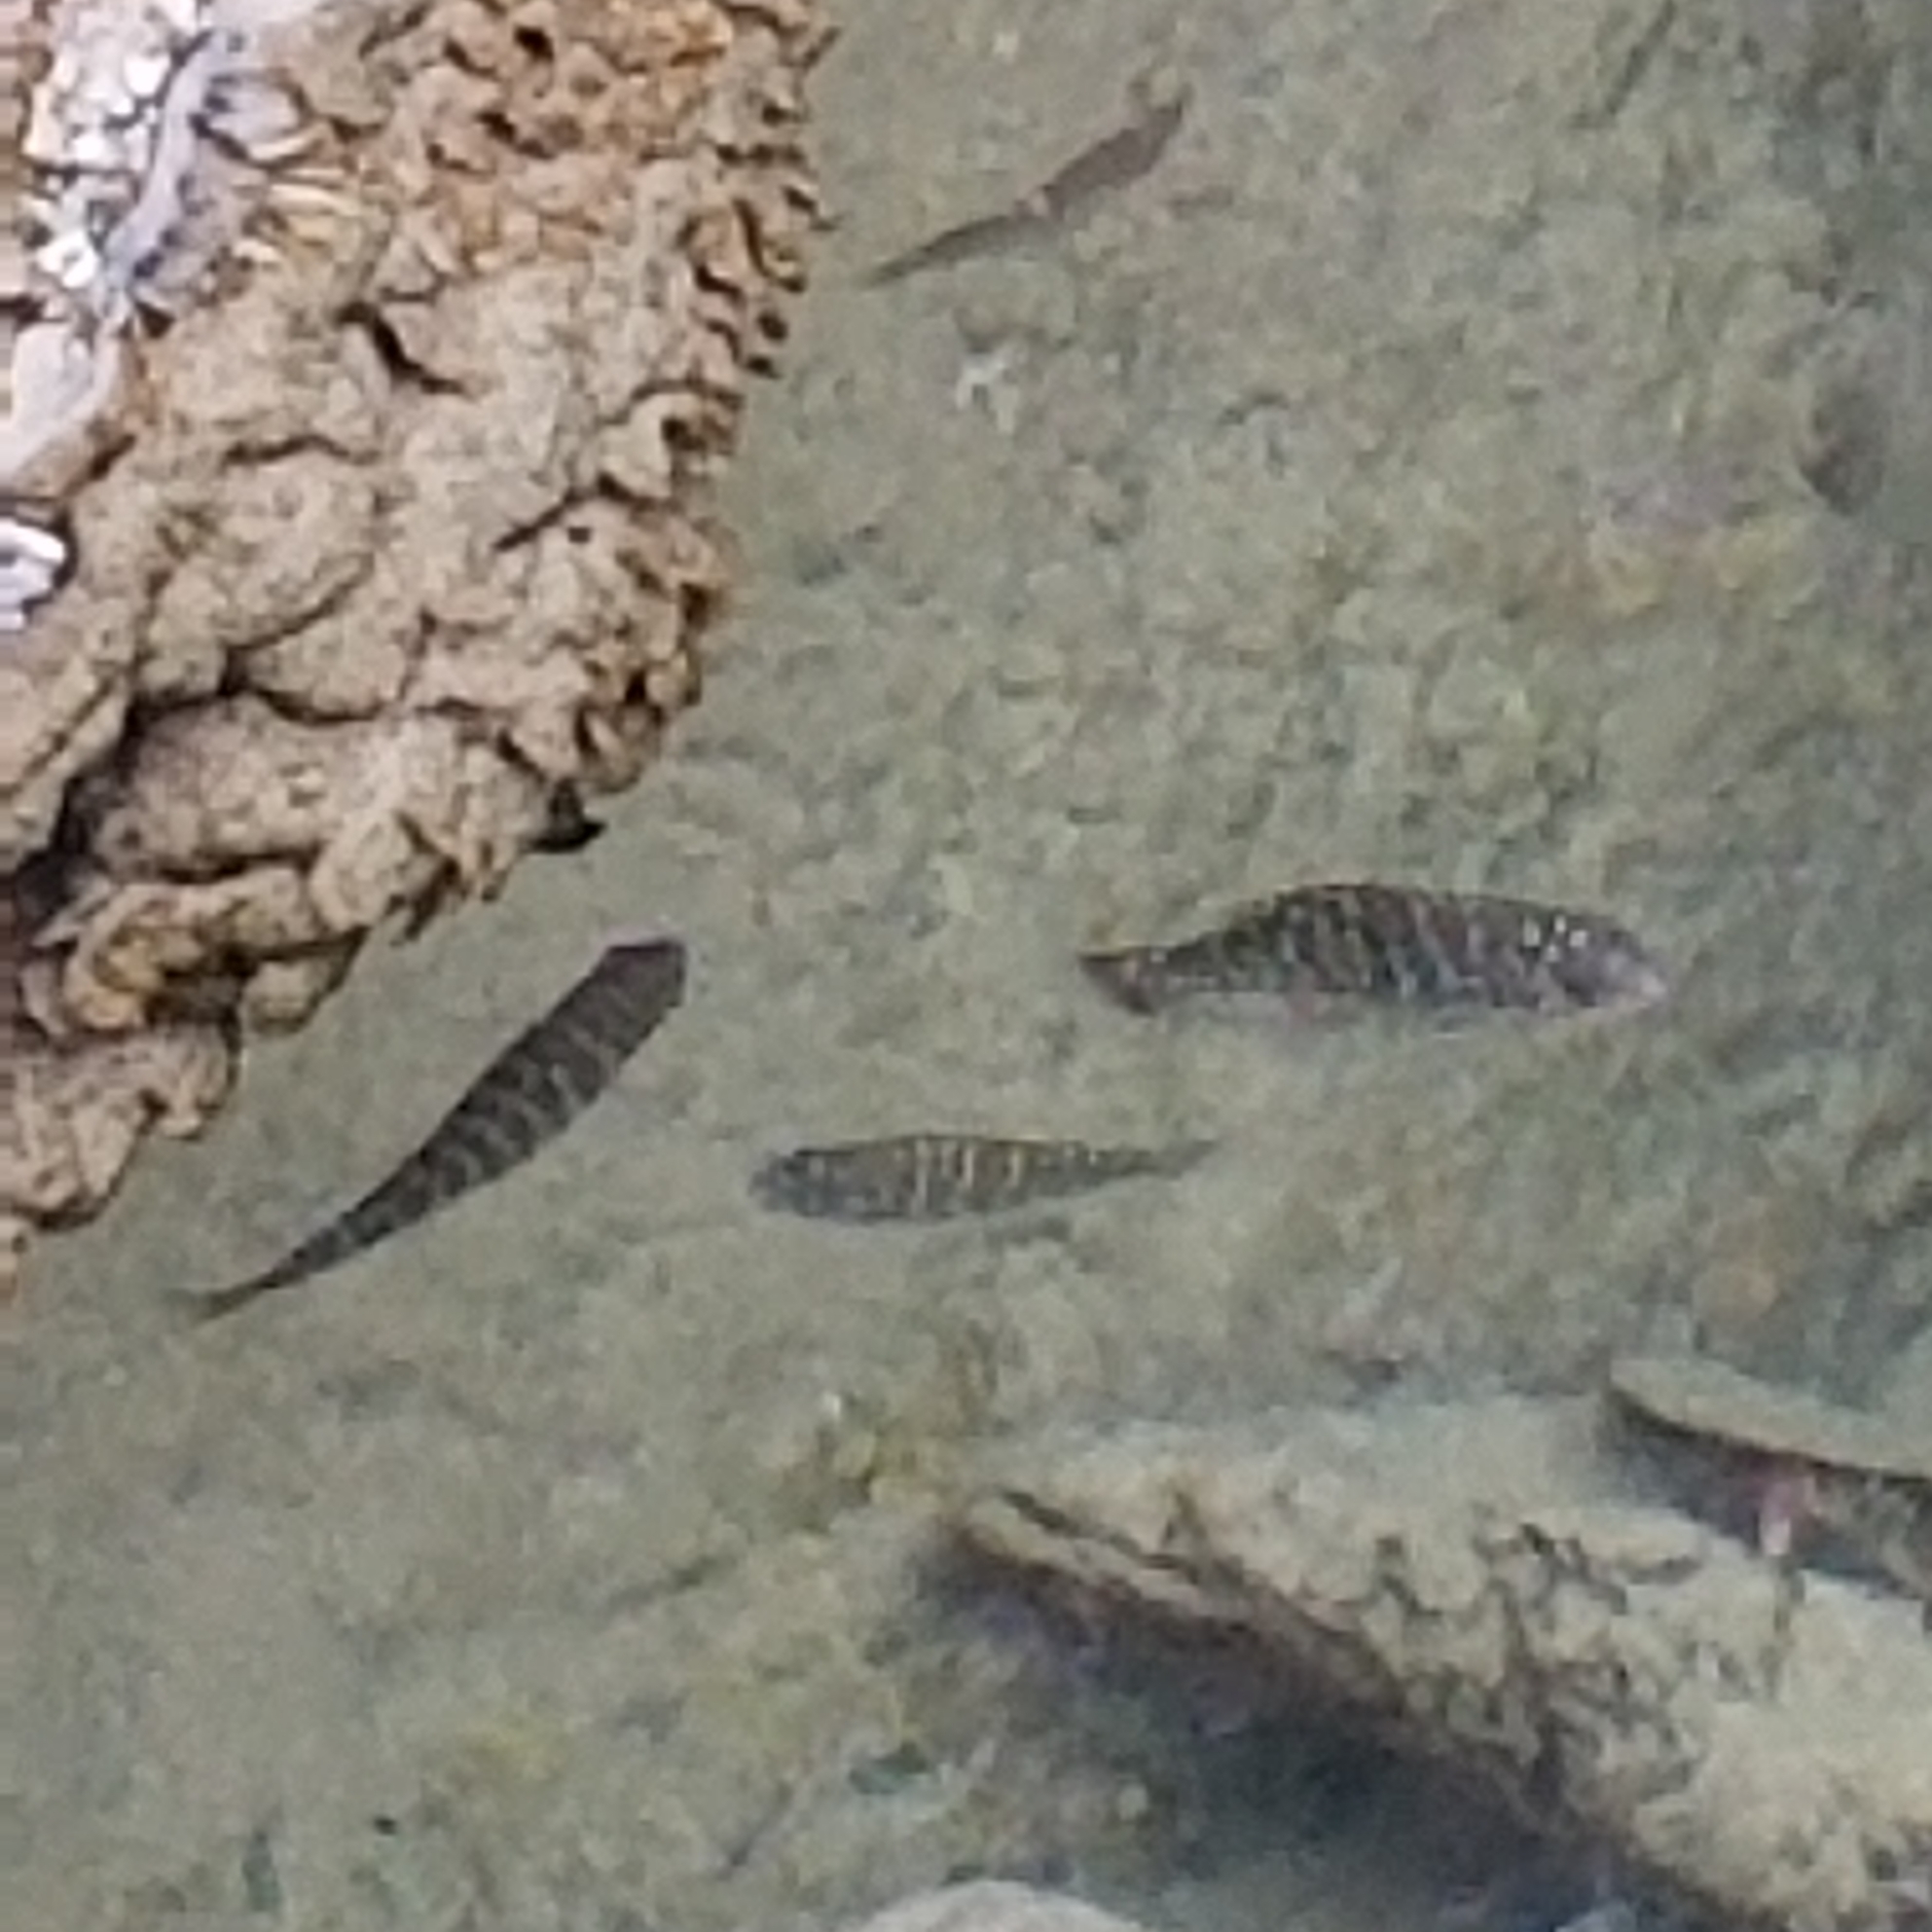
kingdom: Animalia
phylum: Chordata
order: Perciformes
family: Kyphosidae
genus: Kyphosus
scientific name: Kyphosus azureus
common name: Perch
